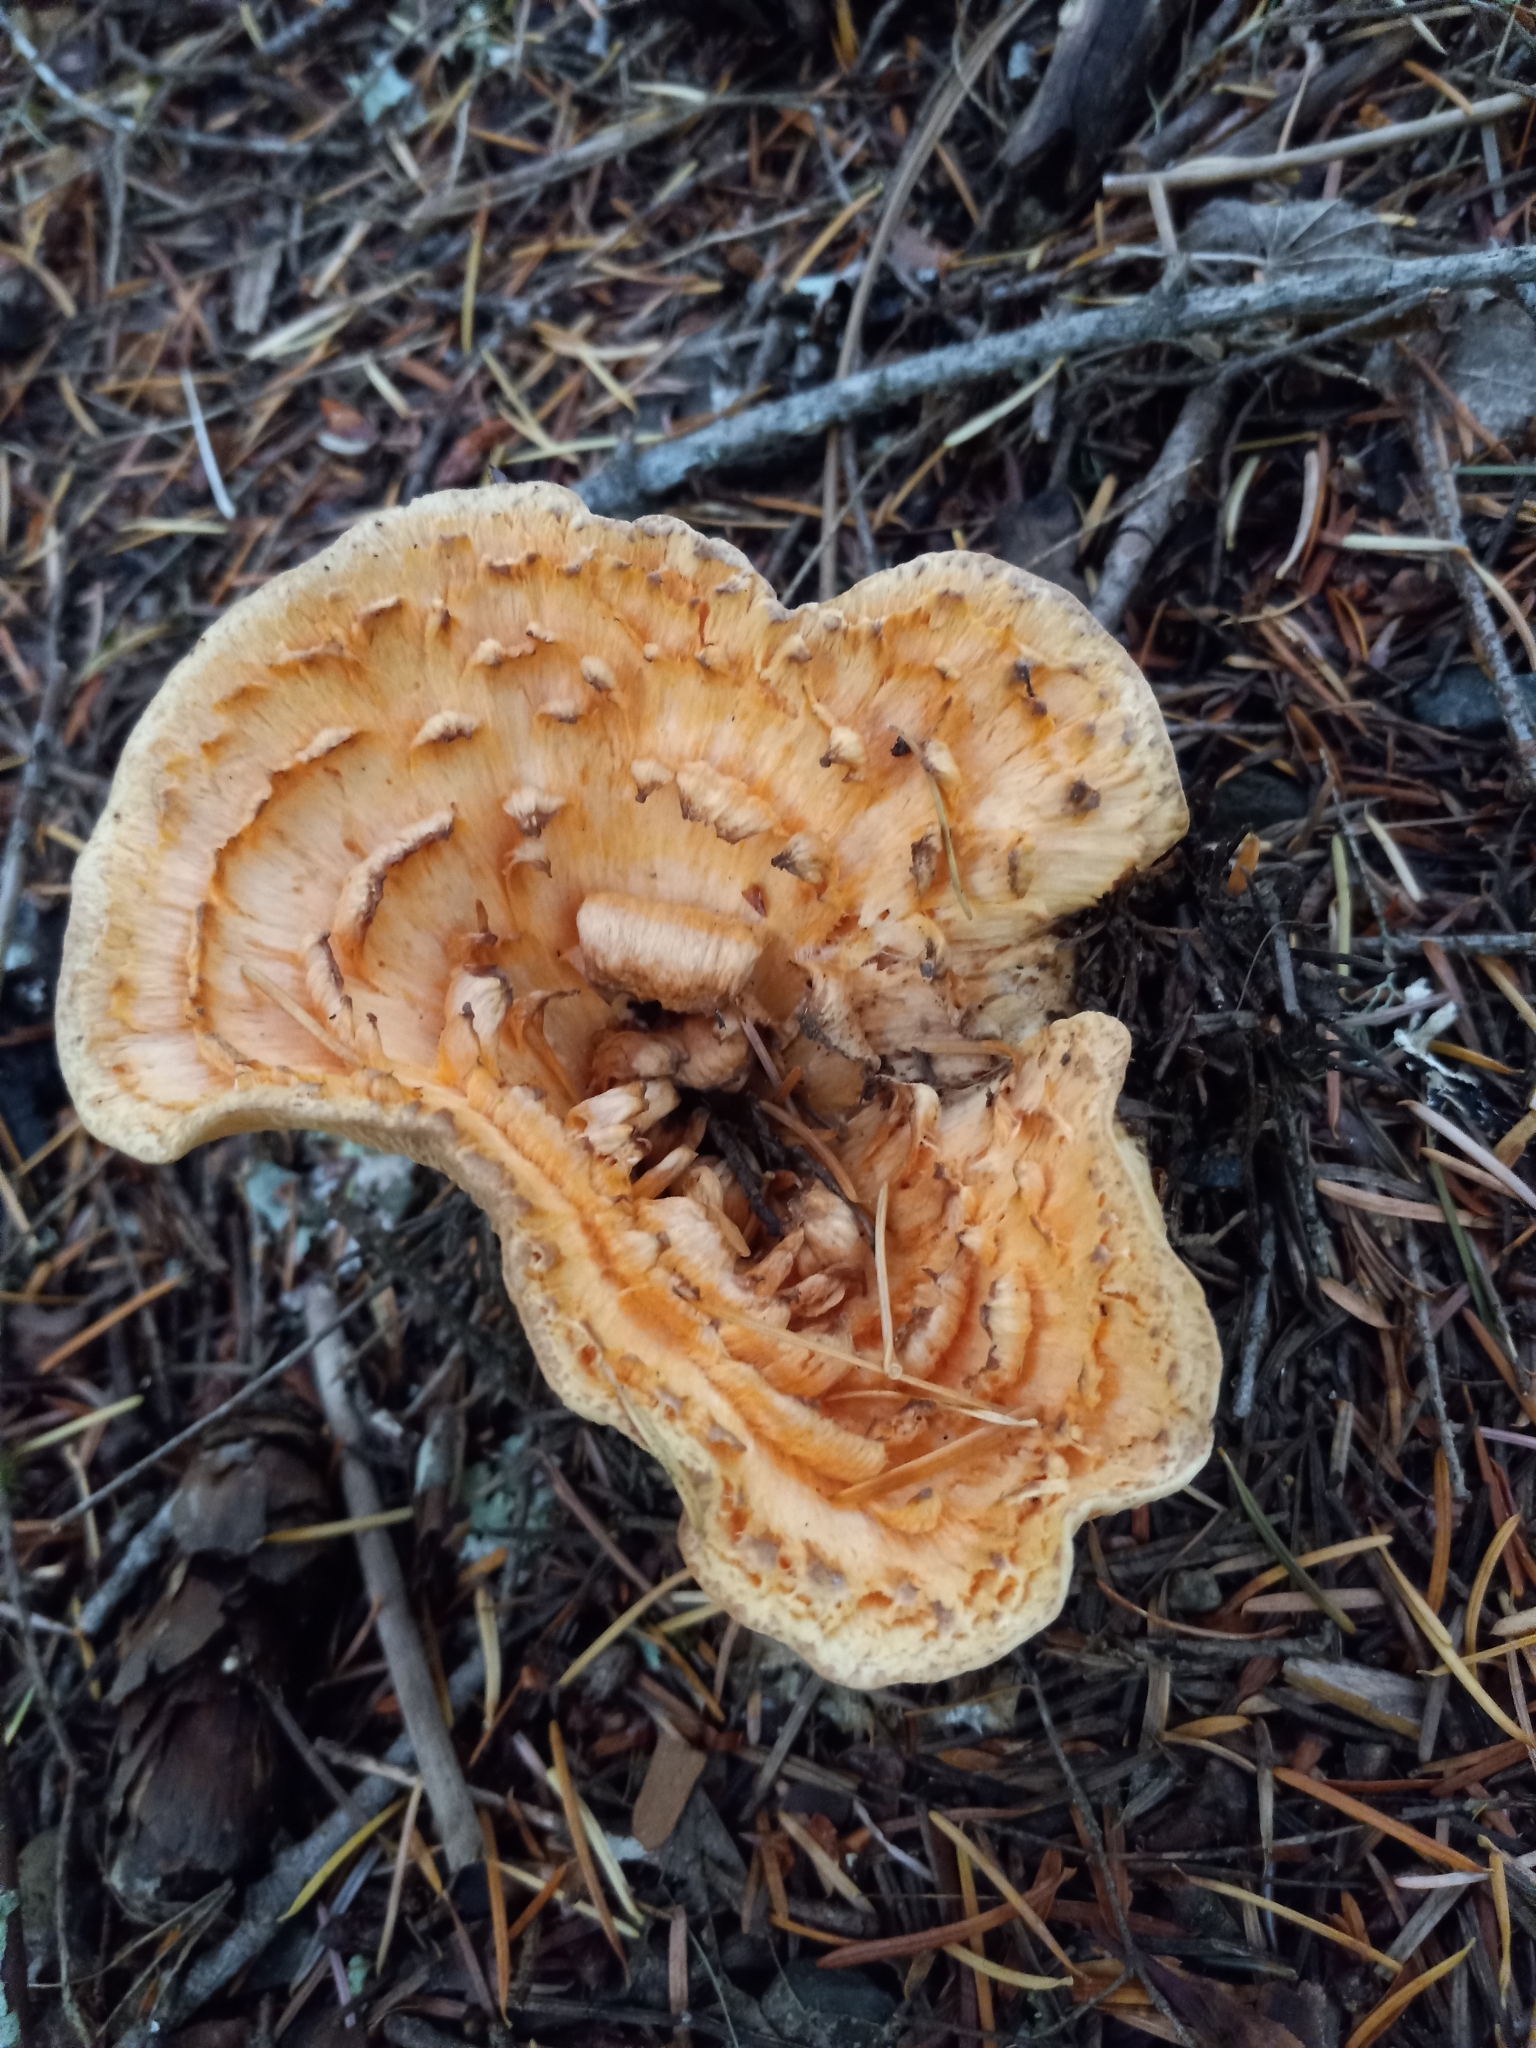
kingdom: Fungi
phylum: Basidiomycota
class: Agaricomycetes
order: Gomphales
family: Gomphaceae
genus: Turbinellus
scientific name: Turbinellus kauffmanii
